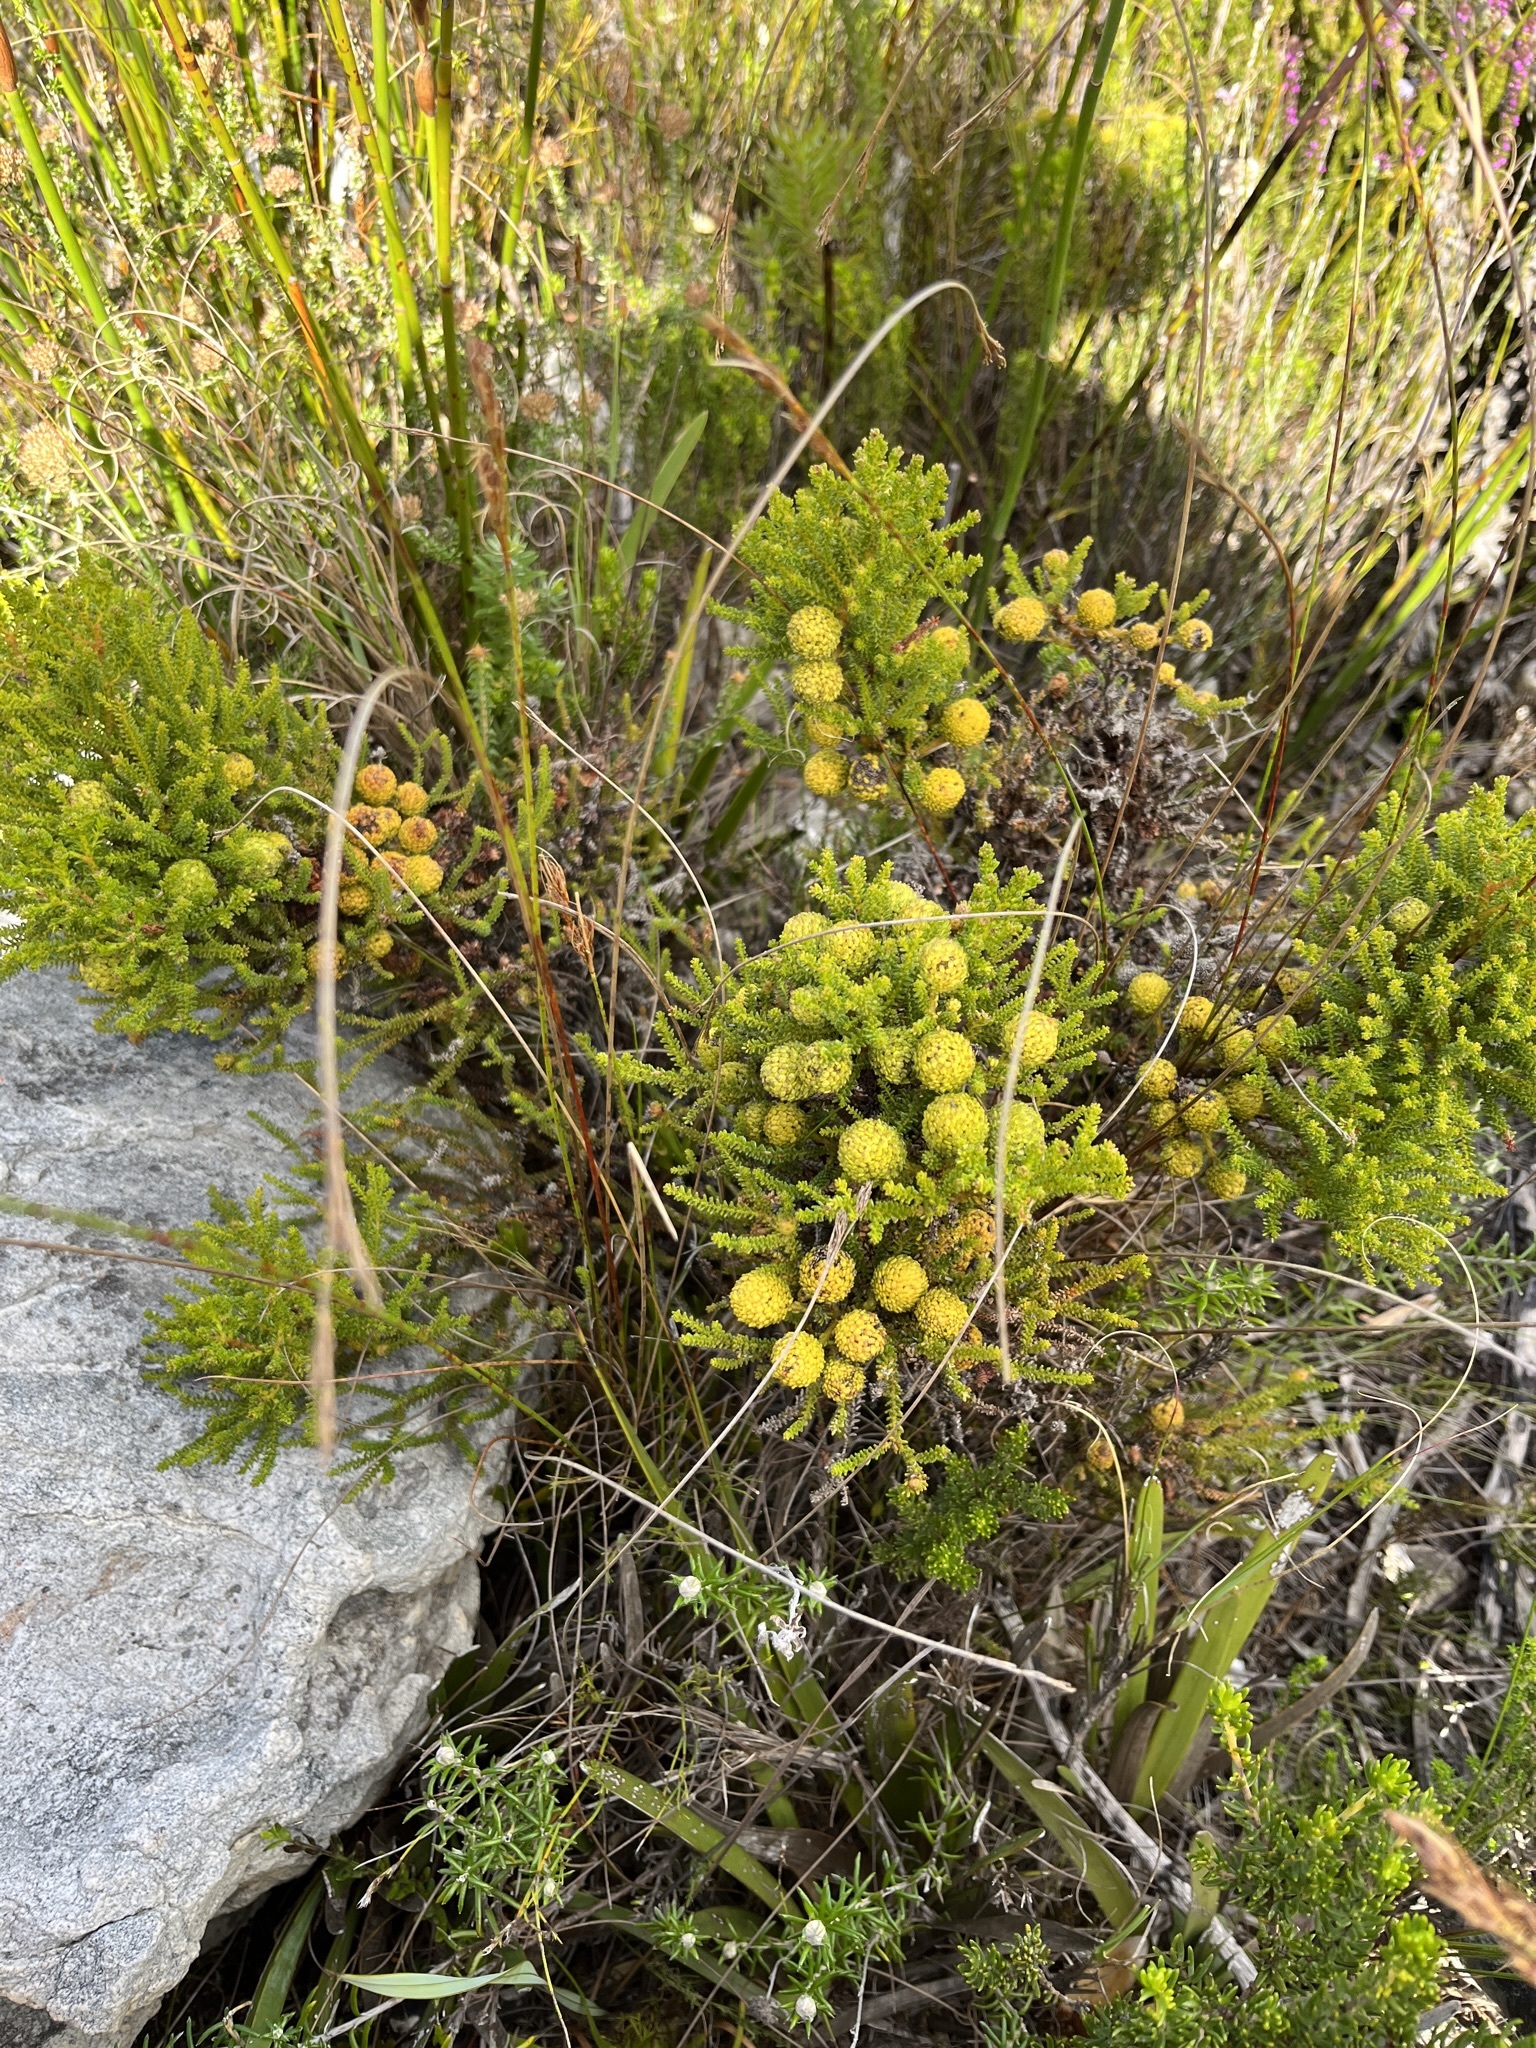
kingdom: Plantae
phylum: Tracheophyta
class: Magnoliopsida
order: Bruniales
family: Bruniaceae
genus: Berzelia
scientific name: Berzelia abrotanoides
